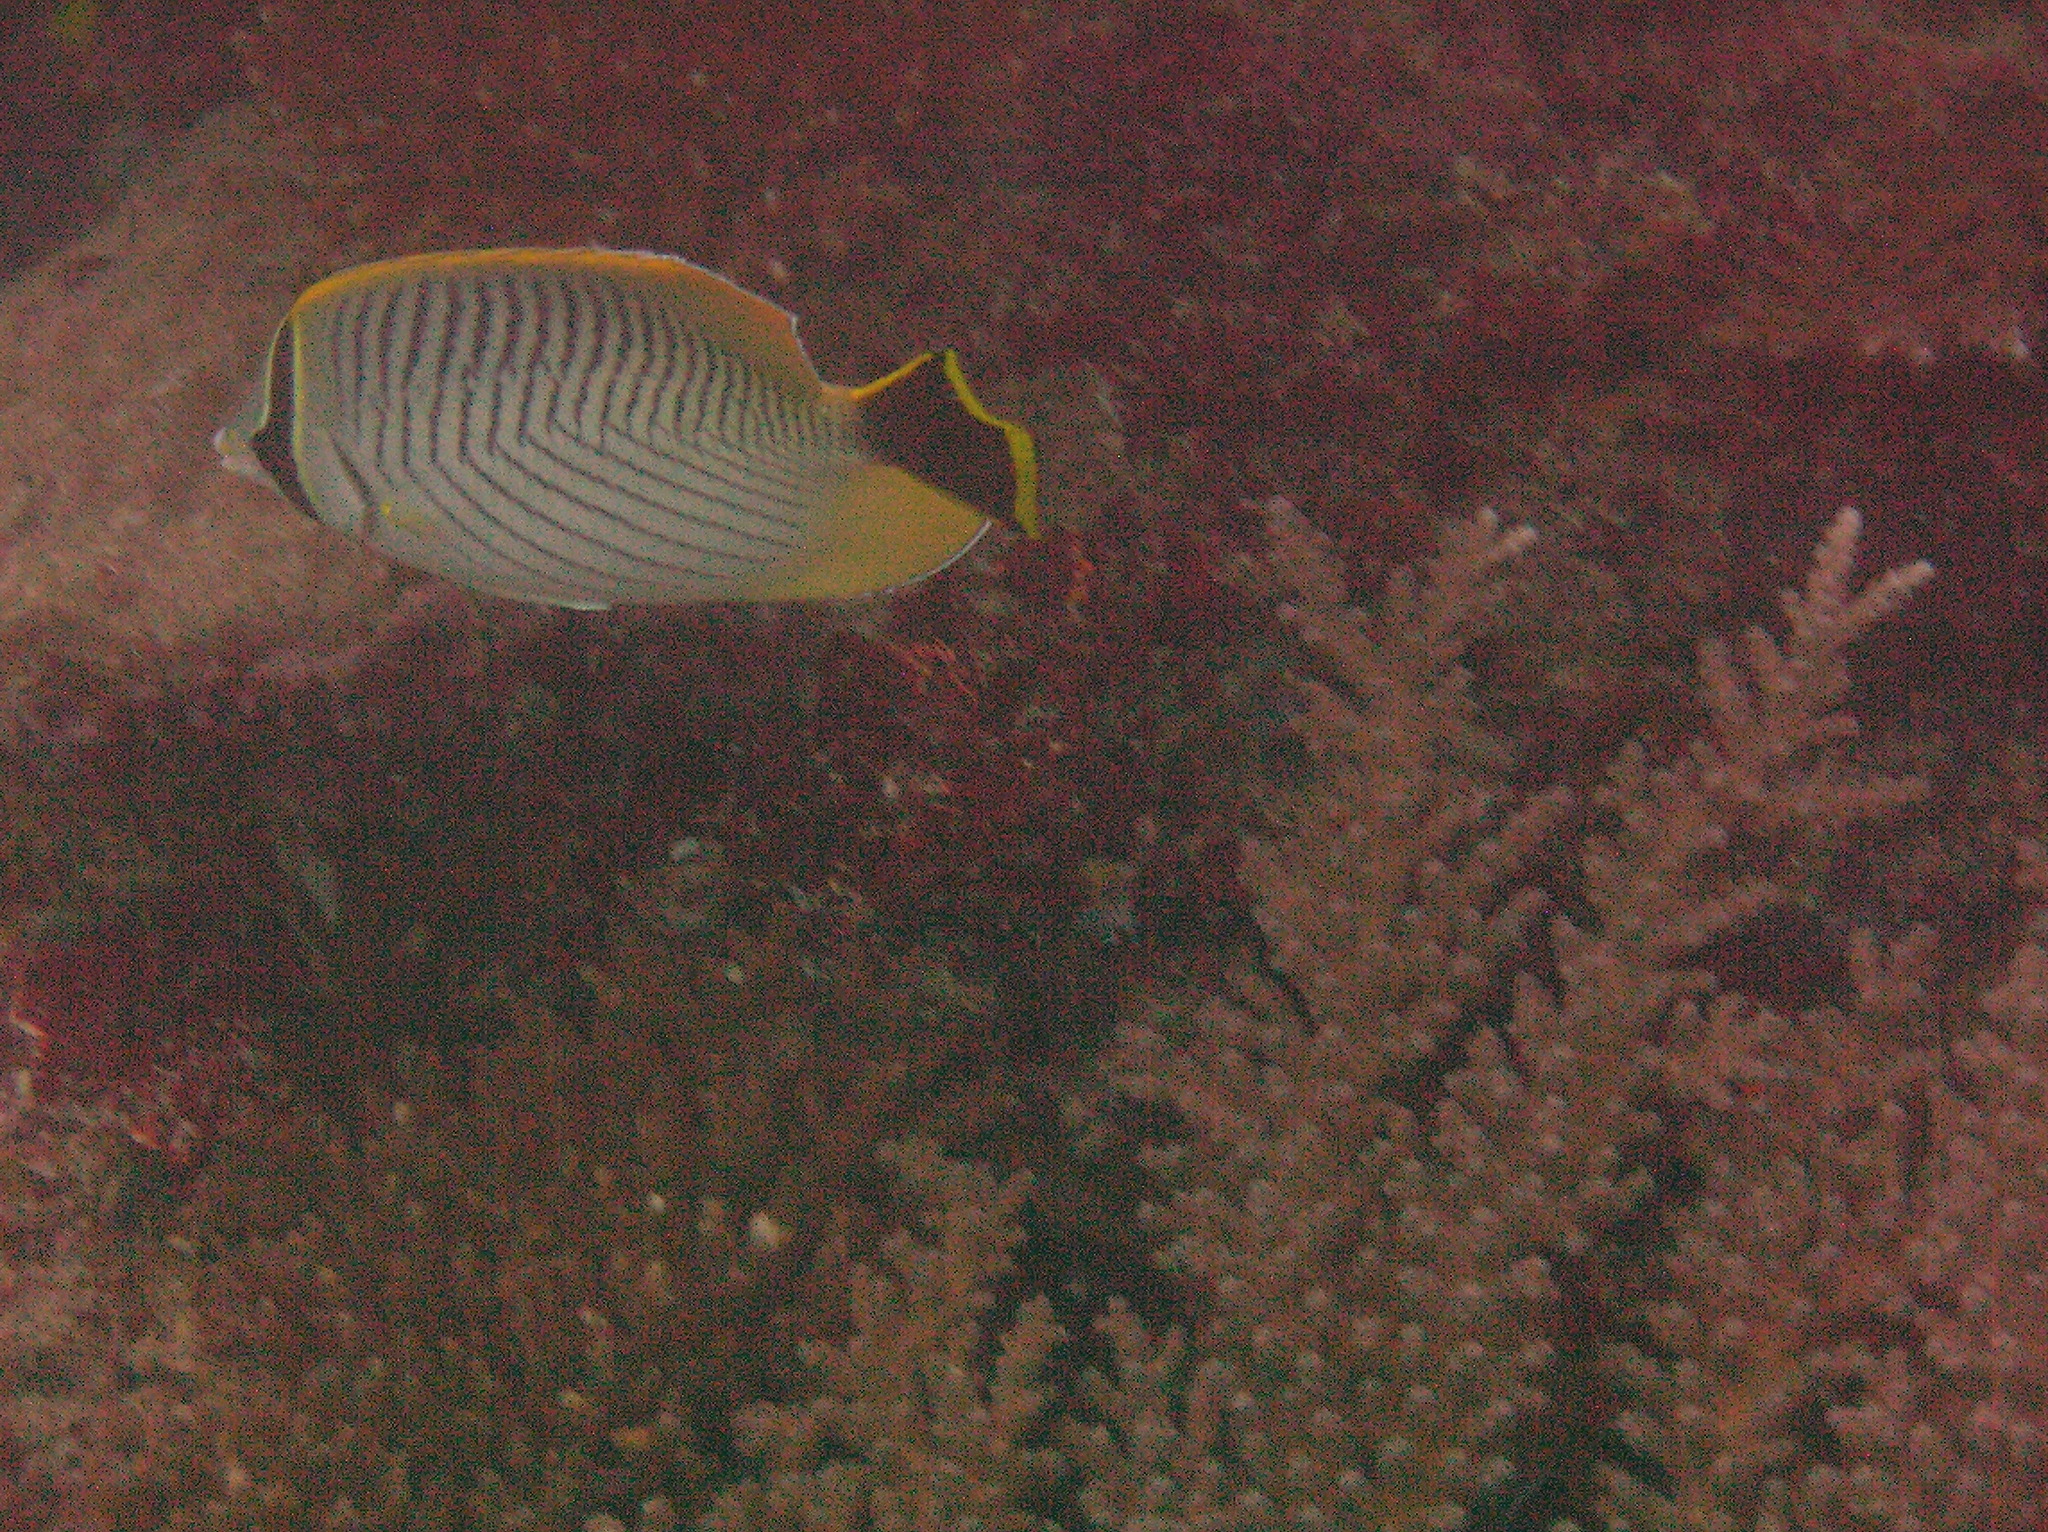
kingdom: Animalia
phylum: Chordata
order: Perciformes
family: Chaetodontidae
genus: Chaetodon
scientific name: Chaetodon trifascialis
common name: Chevroned butterflyfish
